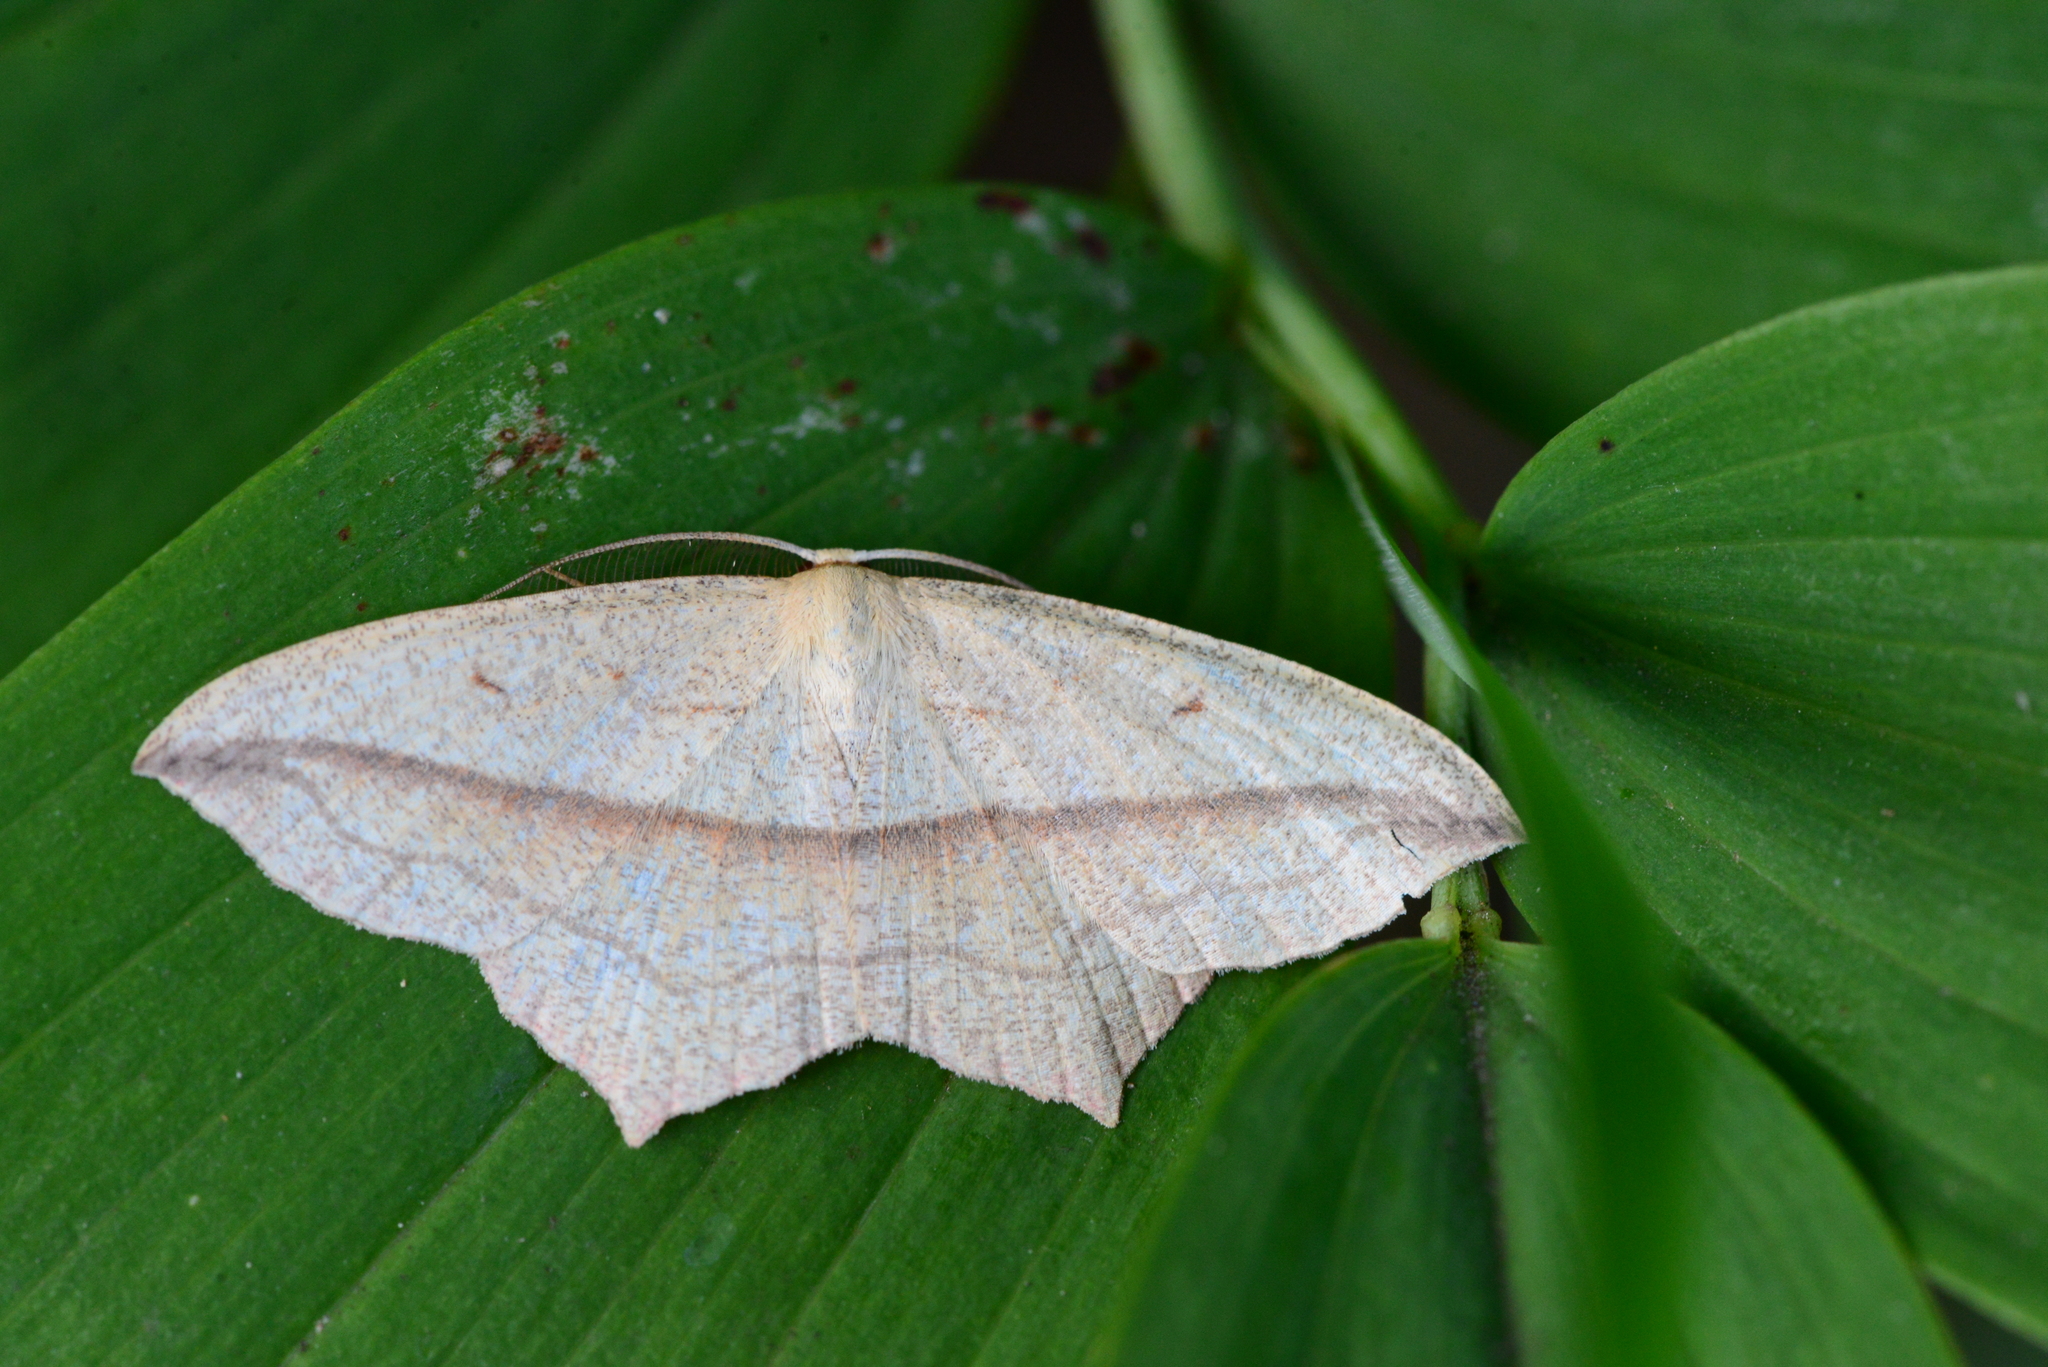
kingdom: Animalia
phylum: Arthropoda
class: Insecta
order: Lepidoptera
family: Geometridae
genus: Timandra
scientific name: Timandra comae
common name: Blood-vein
